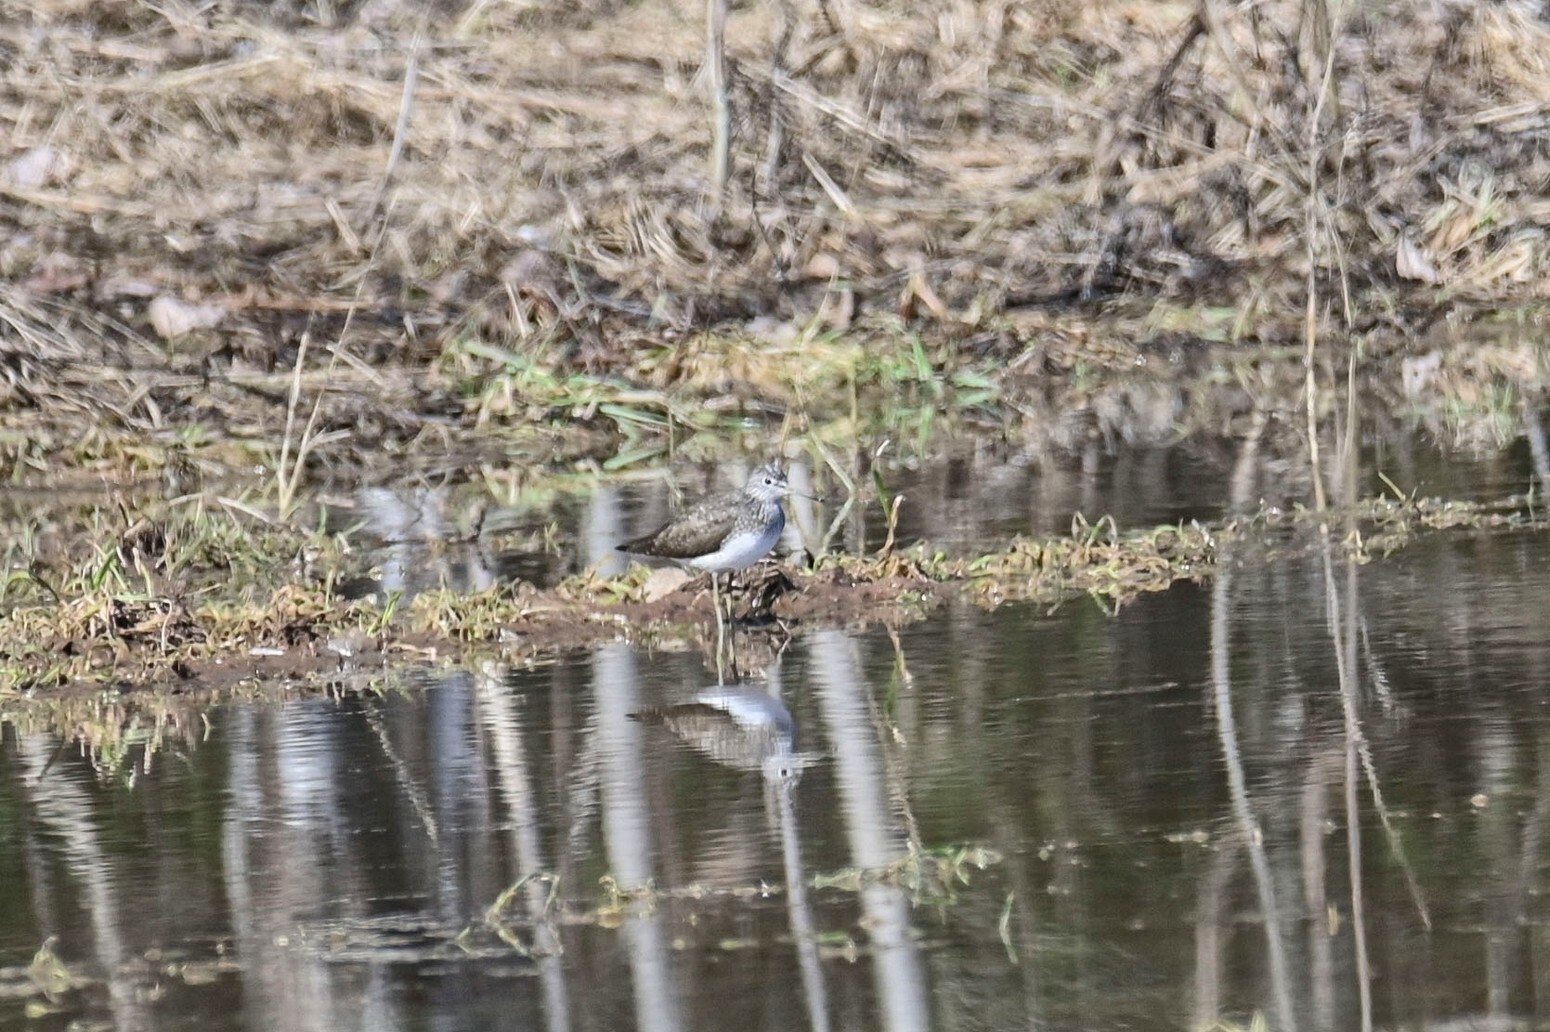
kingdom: Animalia
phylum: Chordata
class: Aves
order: Charadriiformes
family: Scolopacidae
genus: Tringa
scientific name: Tringa ochropus
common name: Green sandpiper
